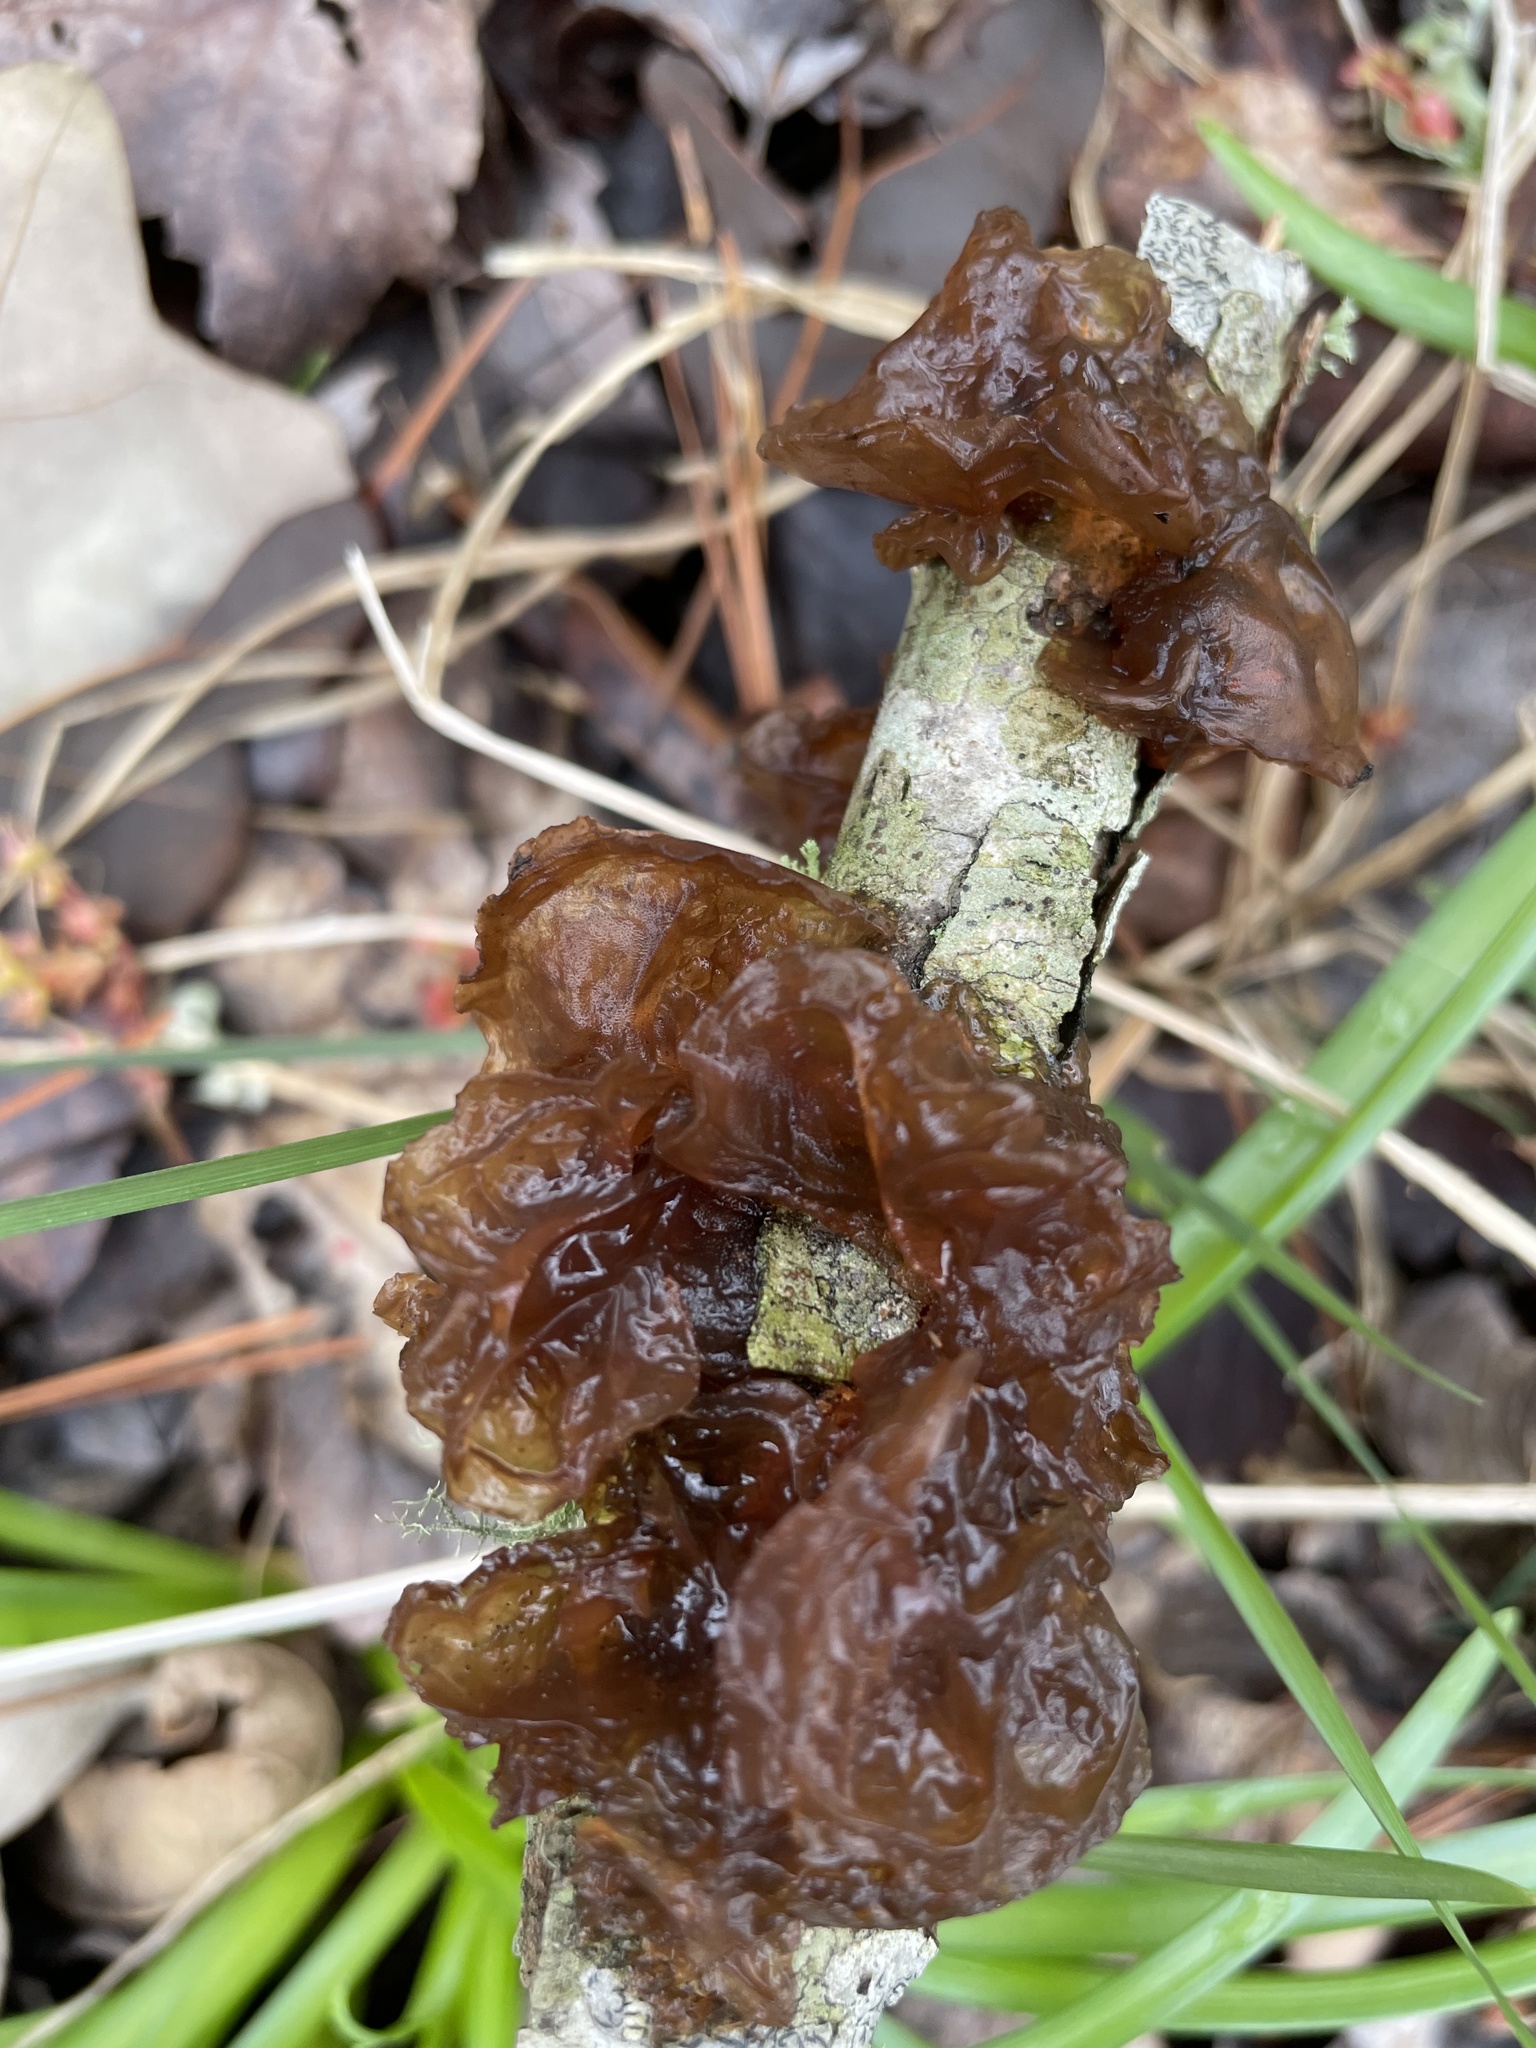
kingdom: Fungi
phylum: Basidiomycota
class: Agaricomycetes
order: Auriculariales
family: Auriculariaceae
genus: Exidia
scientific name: Exidia
